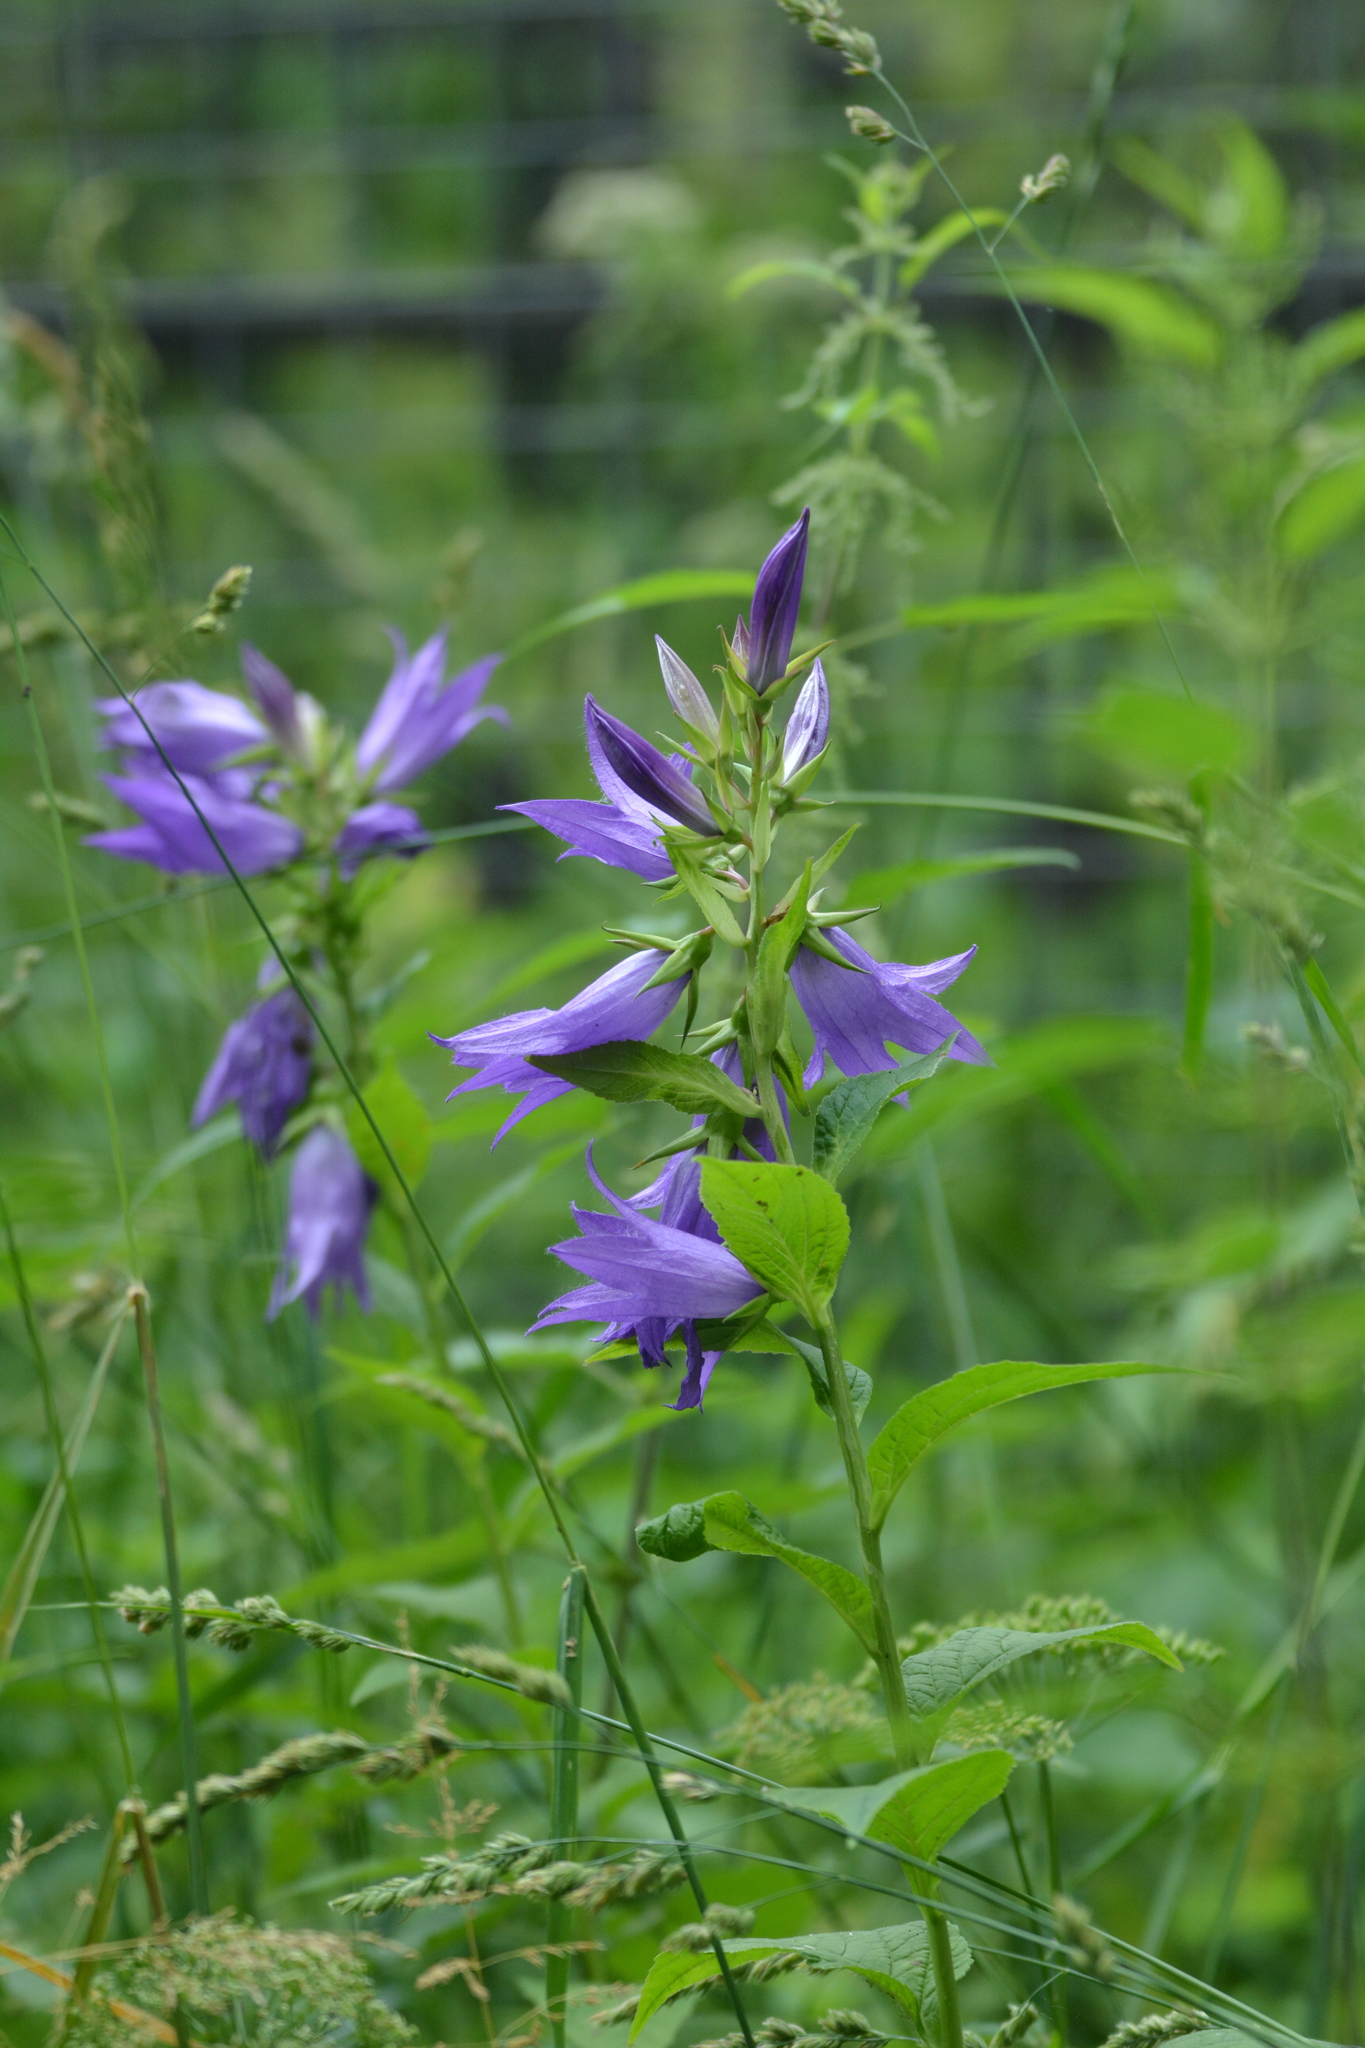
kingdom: Plantae
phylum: Tracheophyta
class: Magnoliopsida
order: Asterales
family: Campanulaceae
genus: Campanula
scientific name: Campanula latifolia
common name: Giant bellflower
